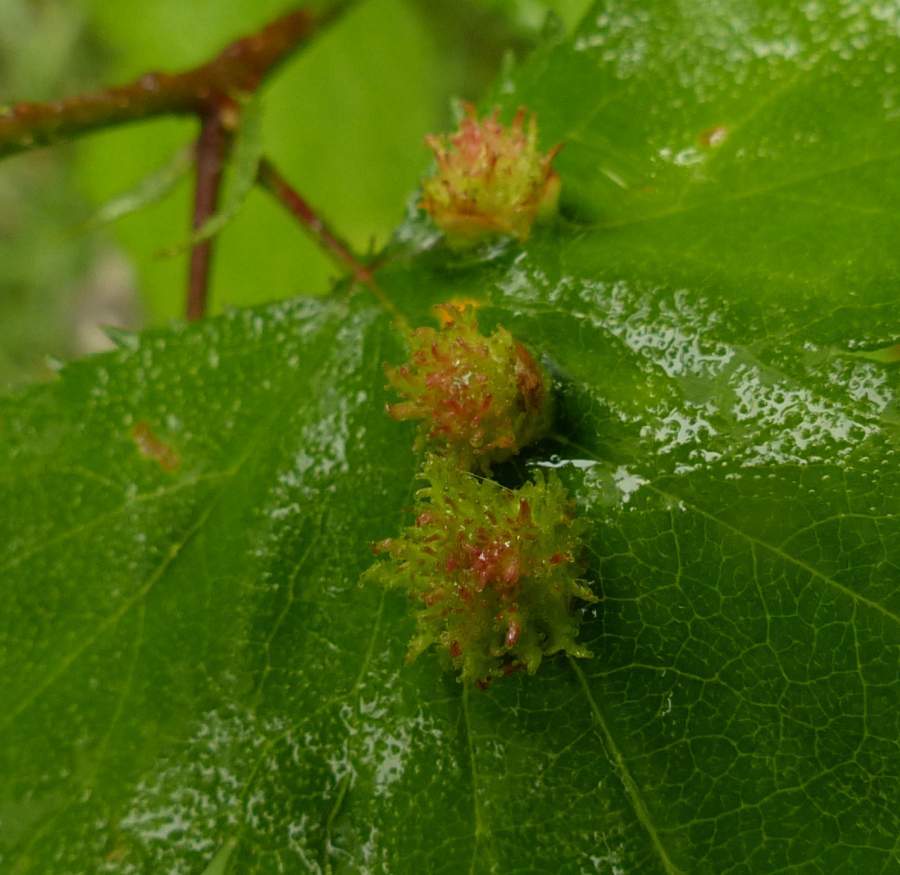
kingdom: Animalia
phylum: Arthropoda
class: Insecta
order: Diptera
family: Cecidomyiidae
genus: Blaesodiplosis
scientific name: Blaesodiplosis crataegibedeguar
